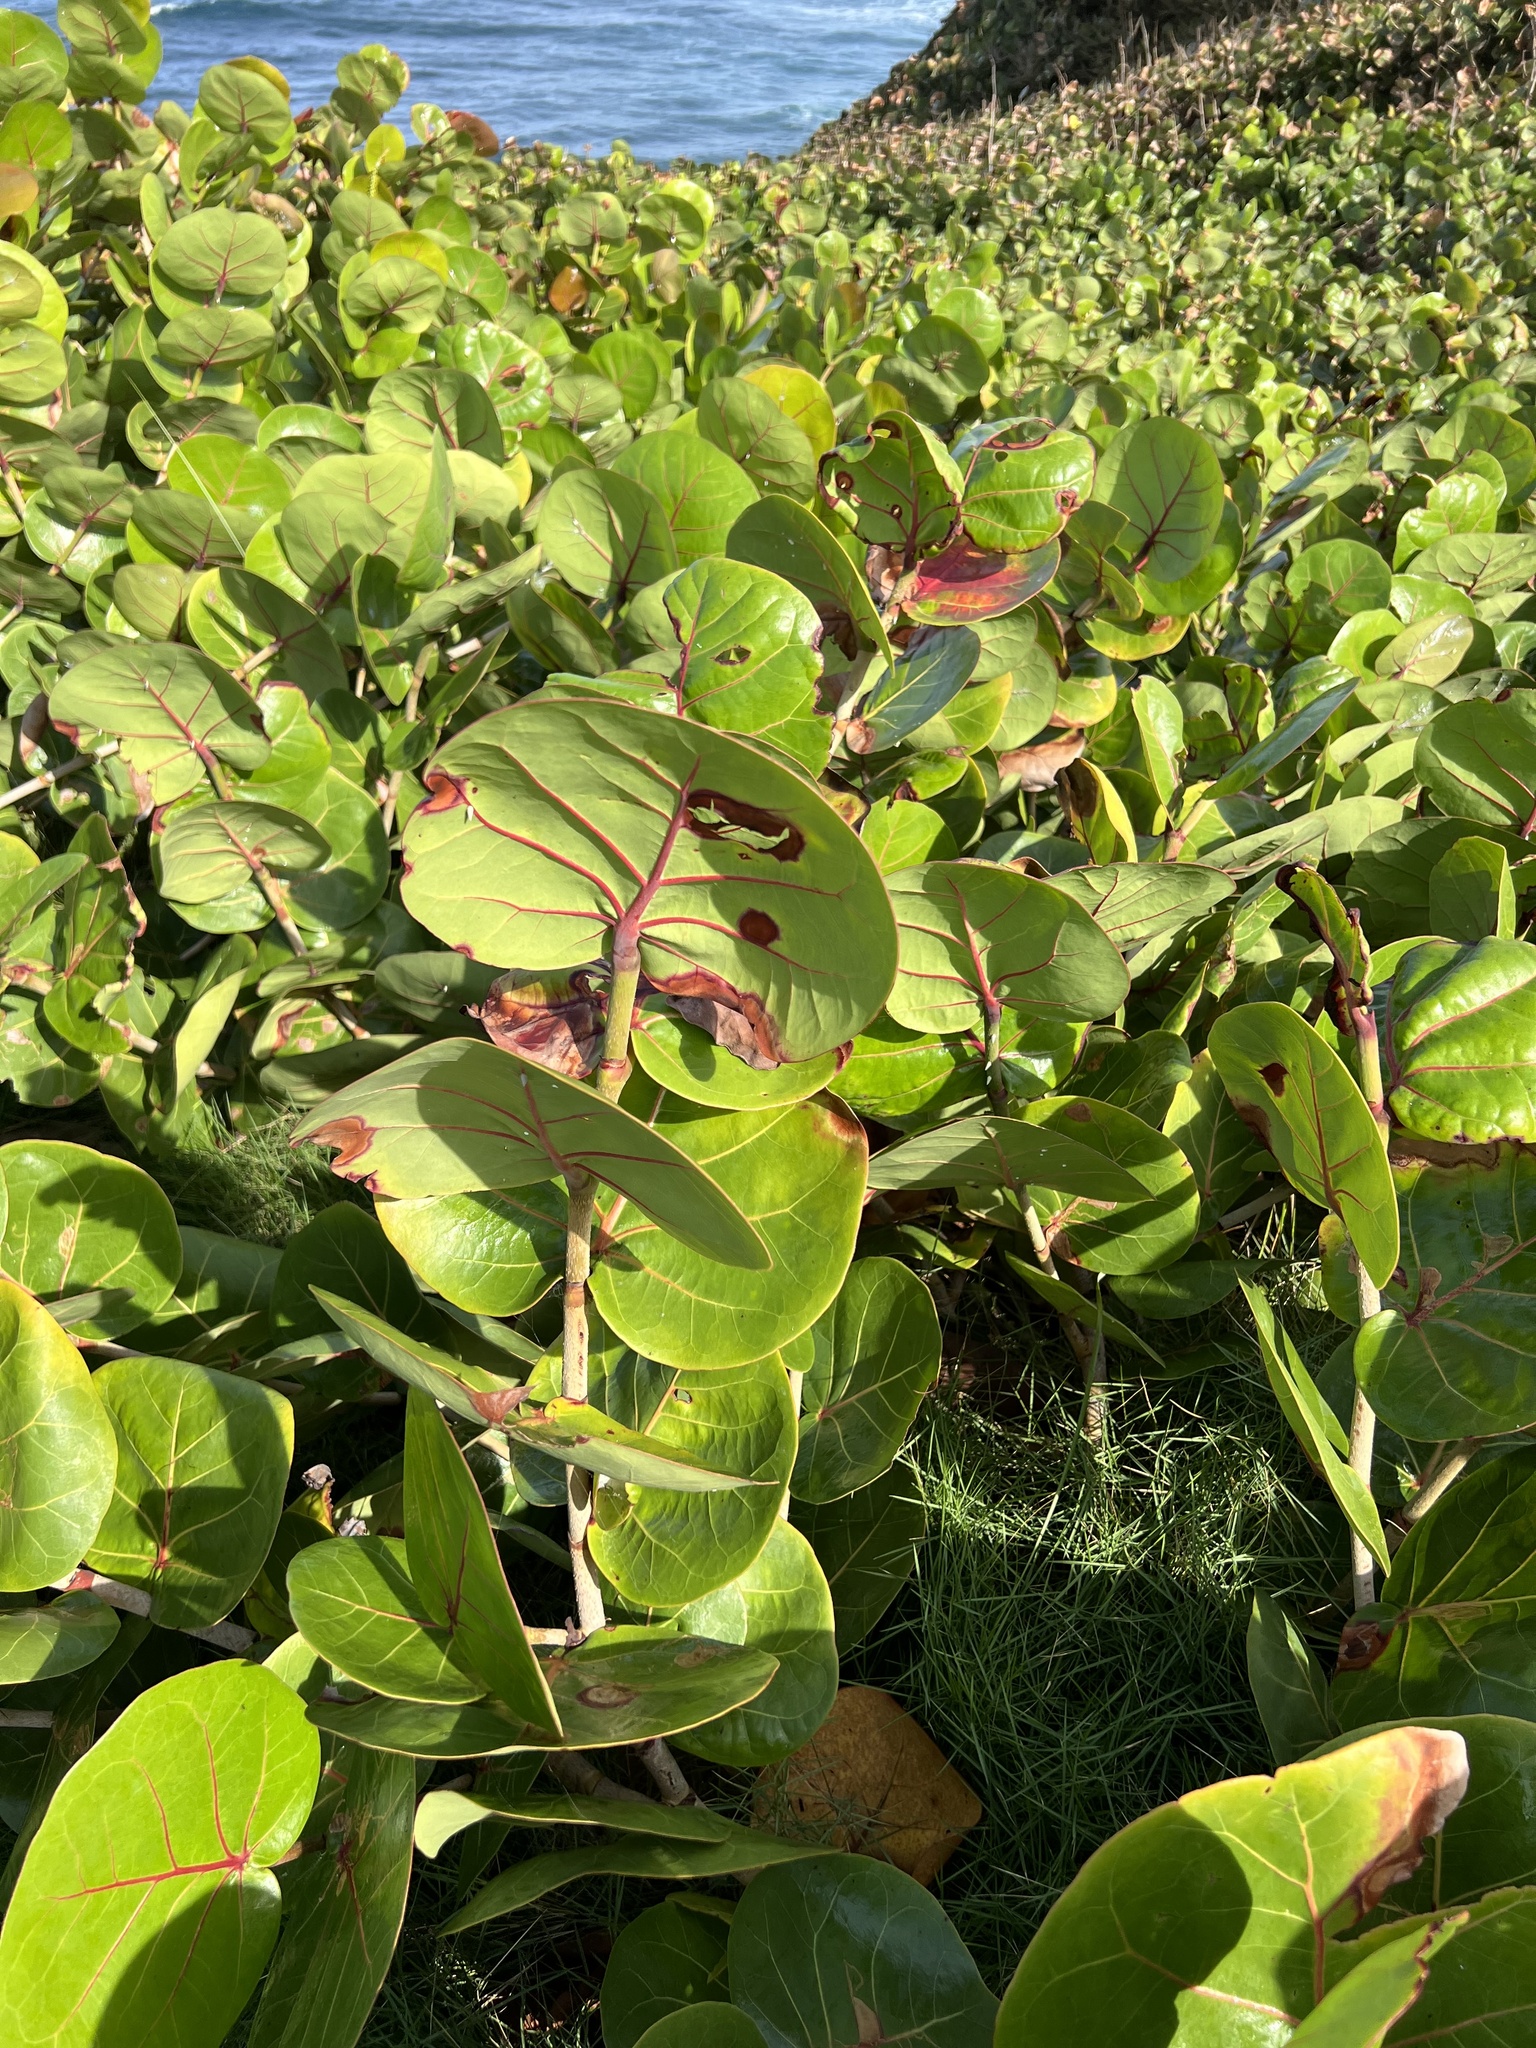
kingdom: Plantae
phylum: Tracheophyta
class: Magnoliopsida
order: Caryophyllales
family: Polygonaceae
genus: Coccoloba
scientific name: Coccoloba uvifera
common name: Seagrape
